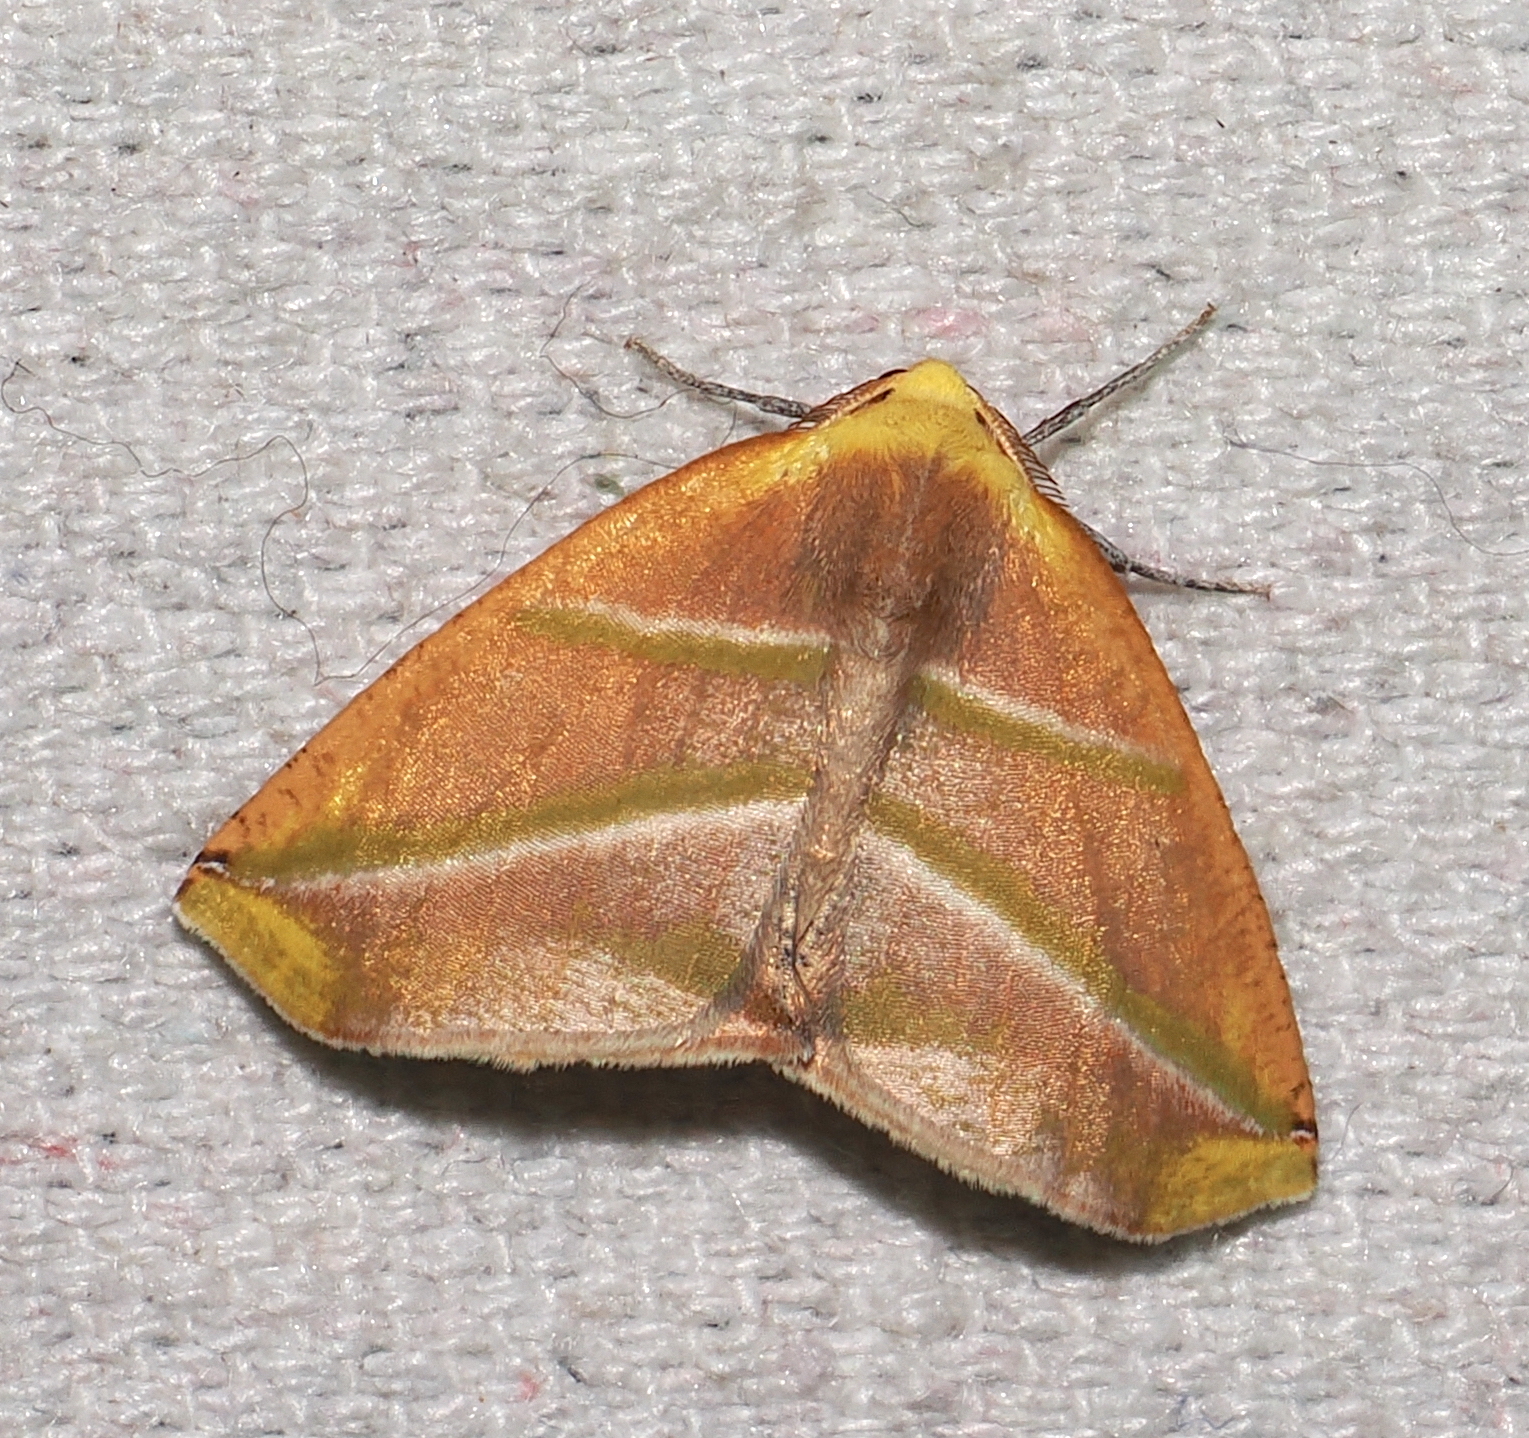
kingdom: Animalia
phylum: Arthropoda
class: Insecta
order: Lepidoptera
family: Geometridae
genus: Sicya
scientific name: Sicya directaria
